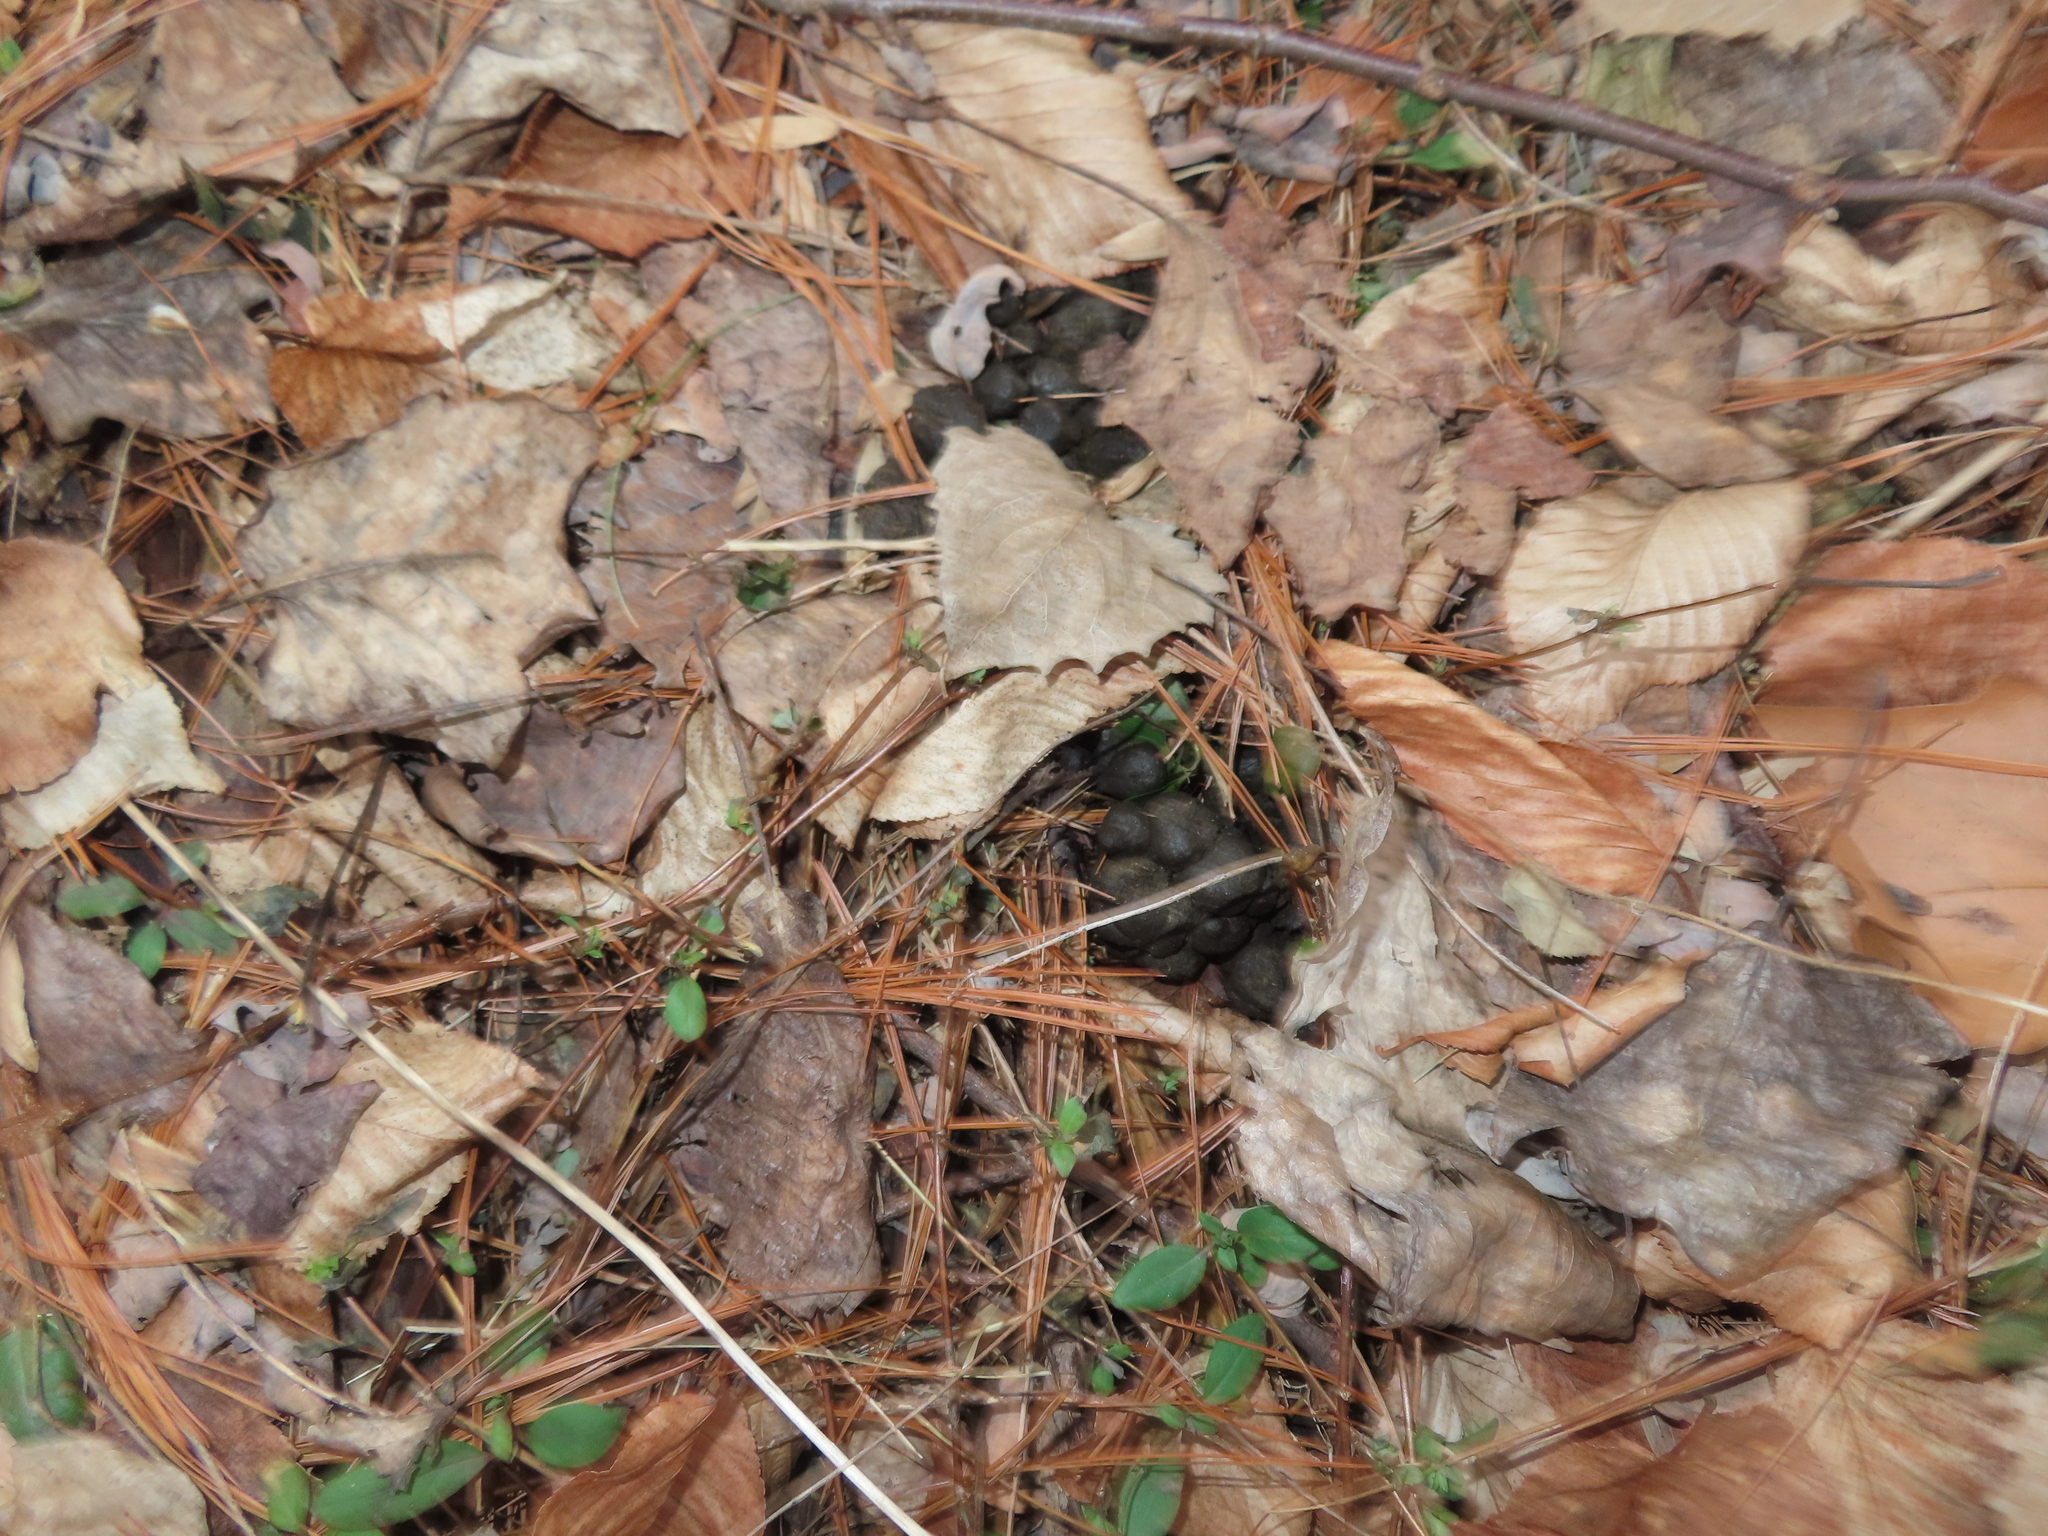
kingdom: Animalia
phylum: Chordata
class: Mammalia
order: Artiodactyla
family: Cervidae
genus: Odocoileus
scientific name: Odocoileus virginianus
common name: White-tailed deer
